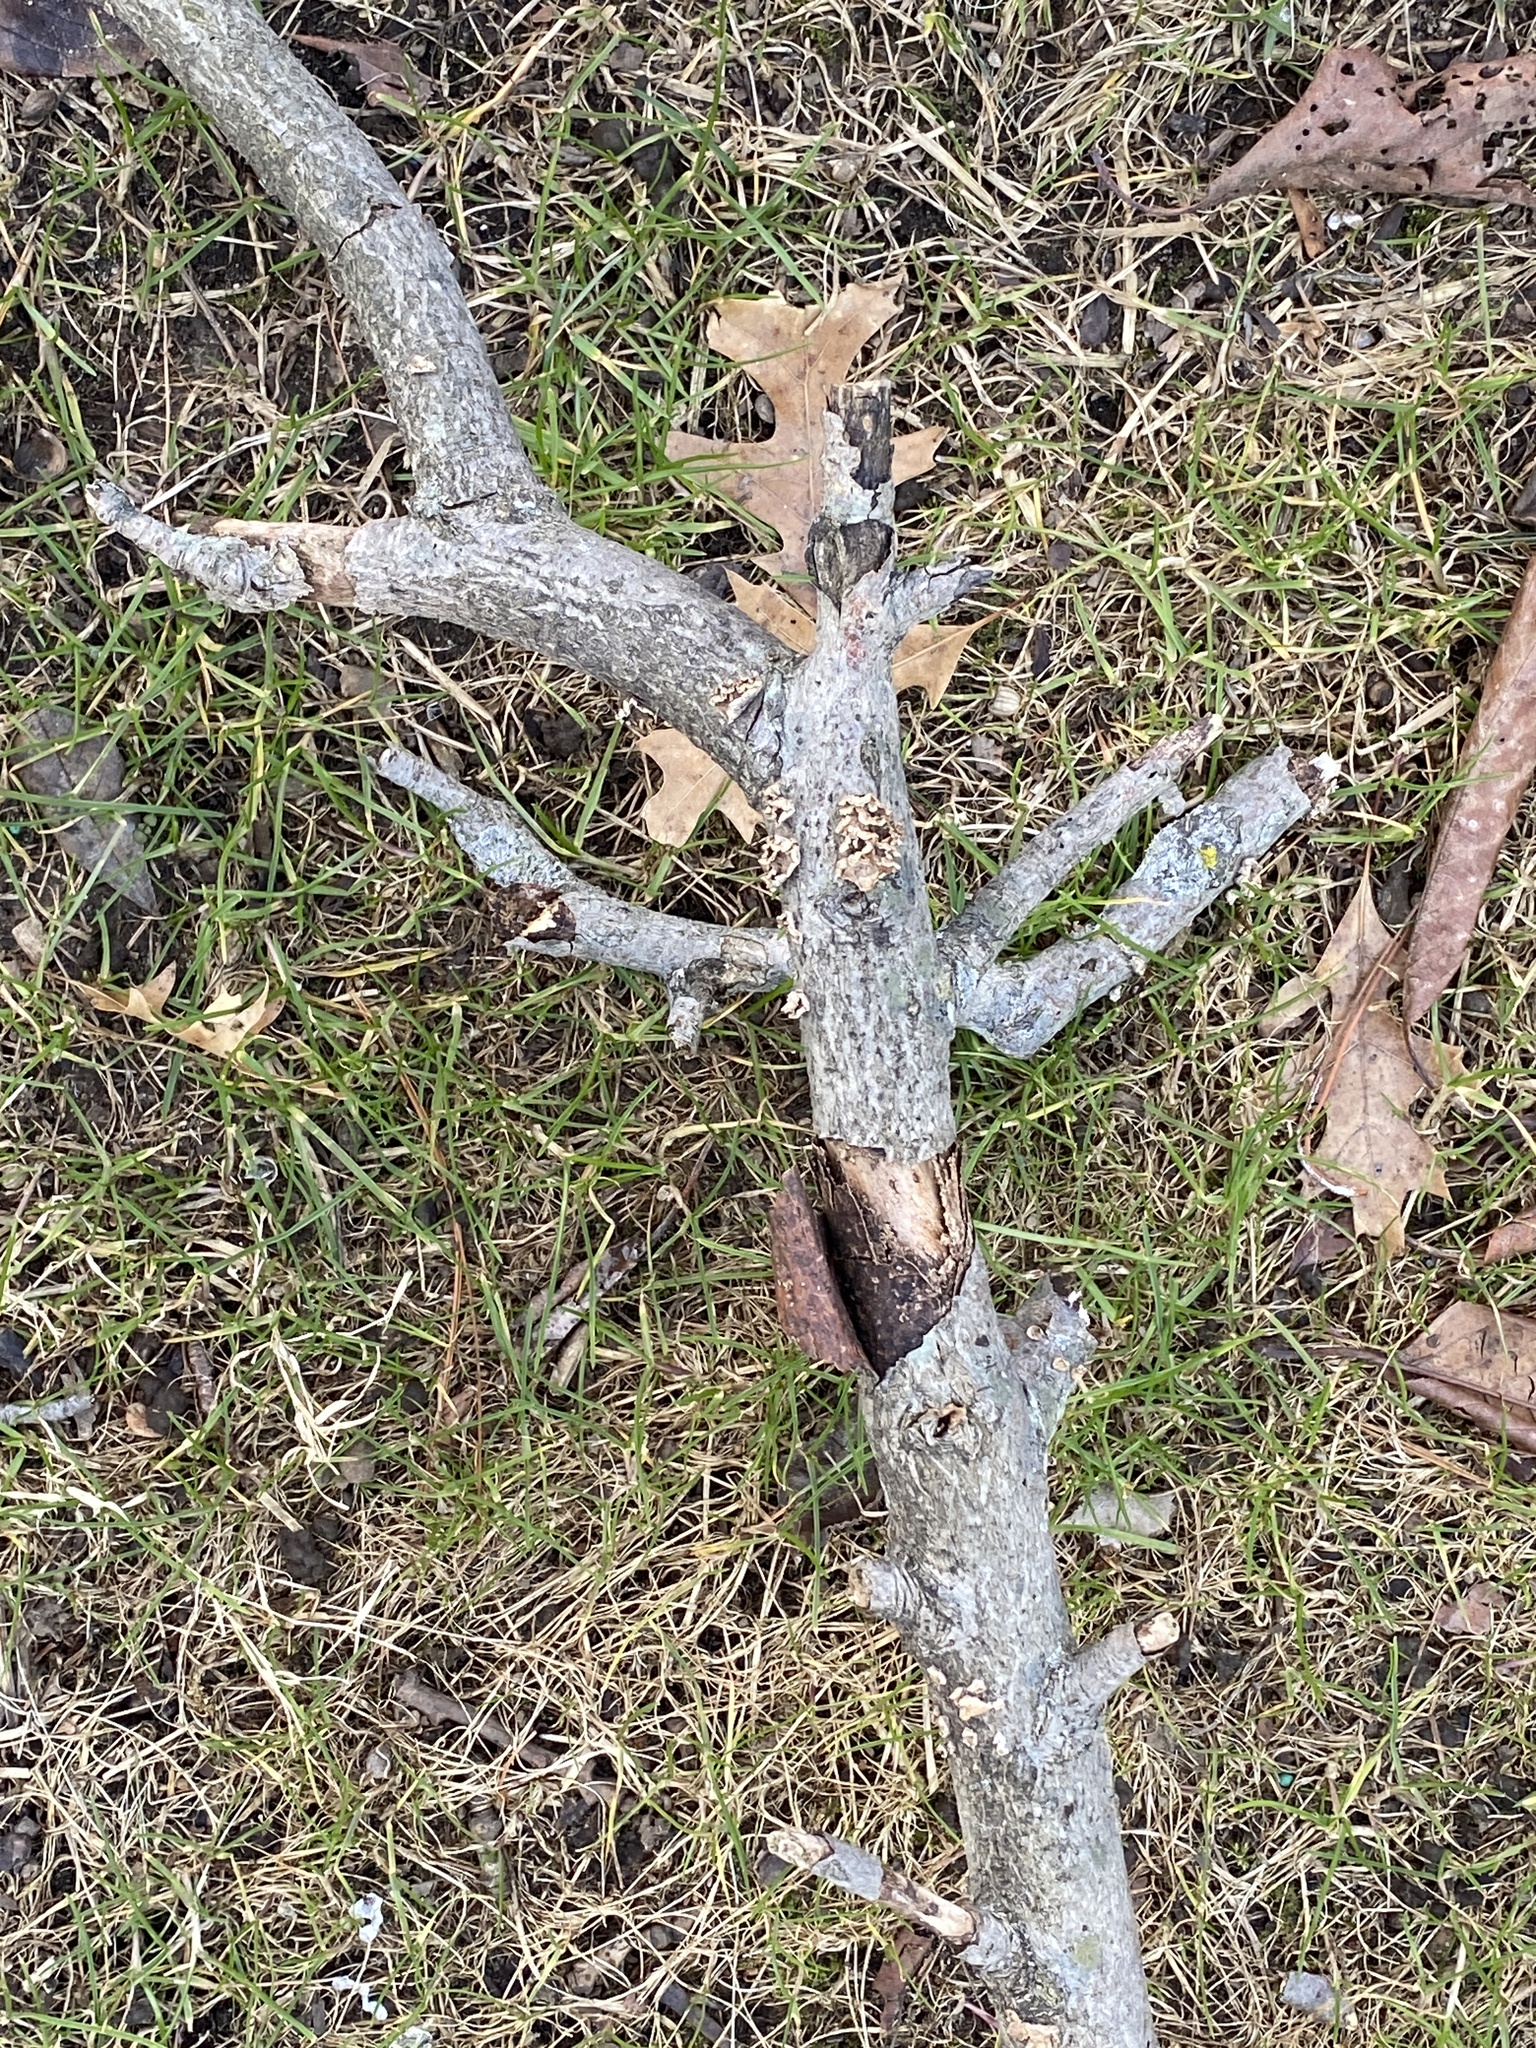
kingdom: Fungi
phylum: Basidiomycota
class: Agaricomycetes
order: Russulales
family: Stereaceae
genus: Stereum
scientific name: Stereum complicatum
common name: Crowded parchment
